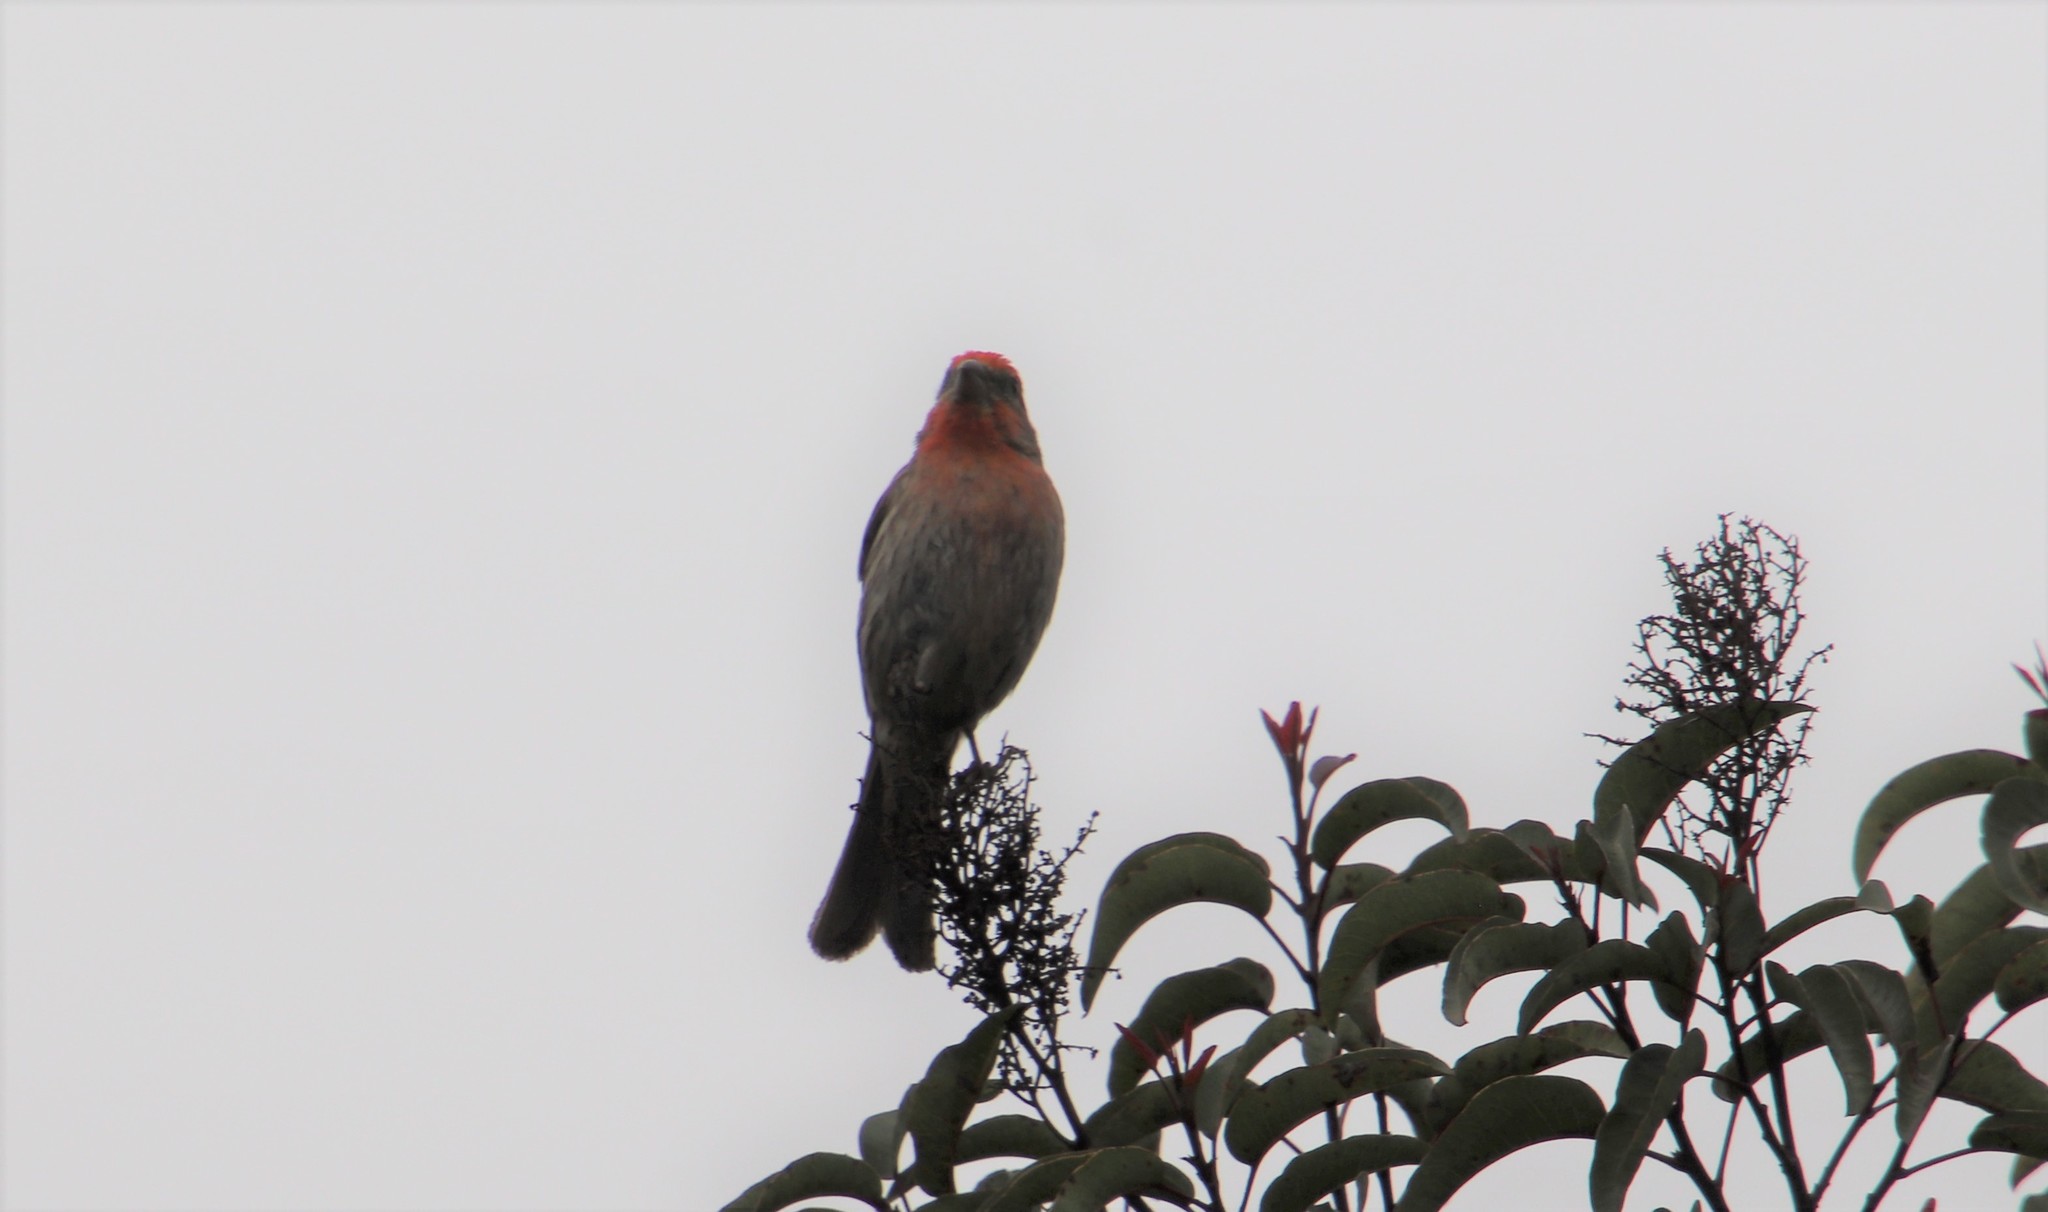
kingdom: Animalia
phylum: Chordata
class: Aves
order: Passeriformes
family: Fringillidae
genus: Haemorhous
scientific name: Haemorhous mexicanus
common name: House finch
